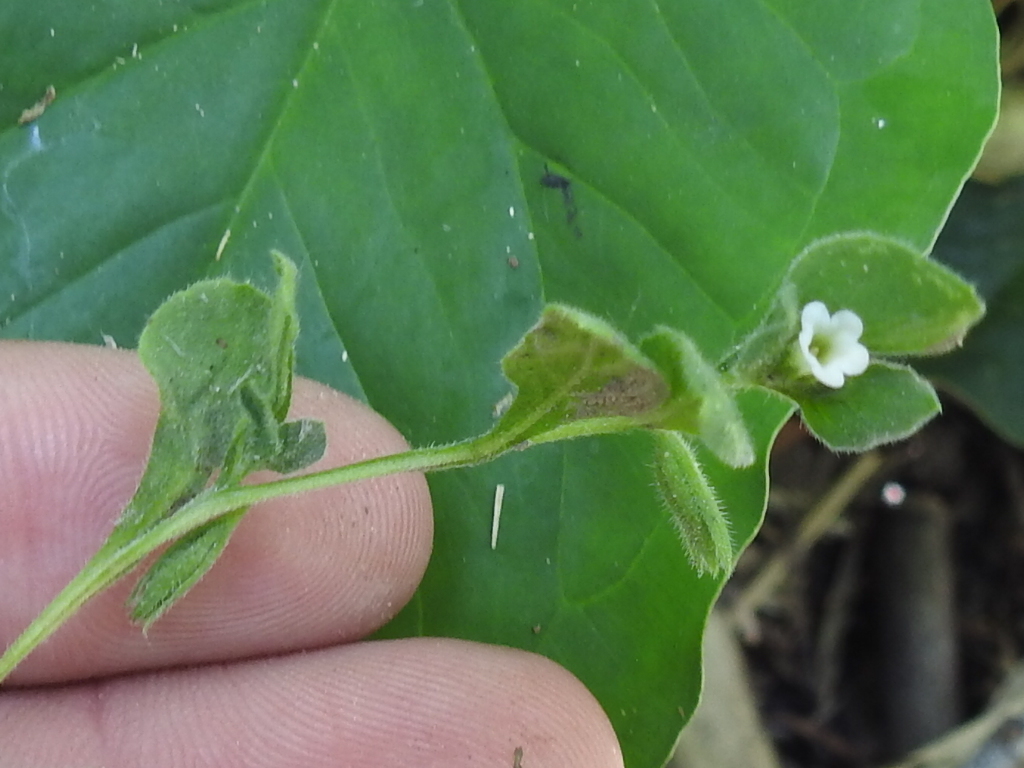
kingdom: Plantae
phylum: Tracheophyta
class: Magnoliopsida
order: Boraginales
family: Namaceae
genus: Nama
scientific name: Nama jamaicensis
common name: Jamaicanweed
